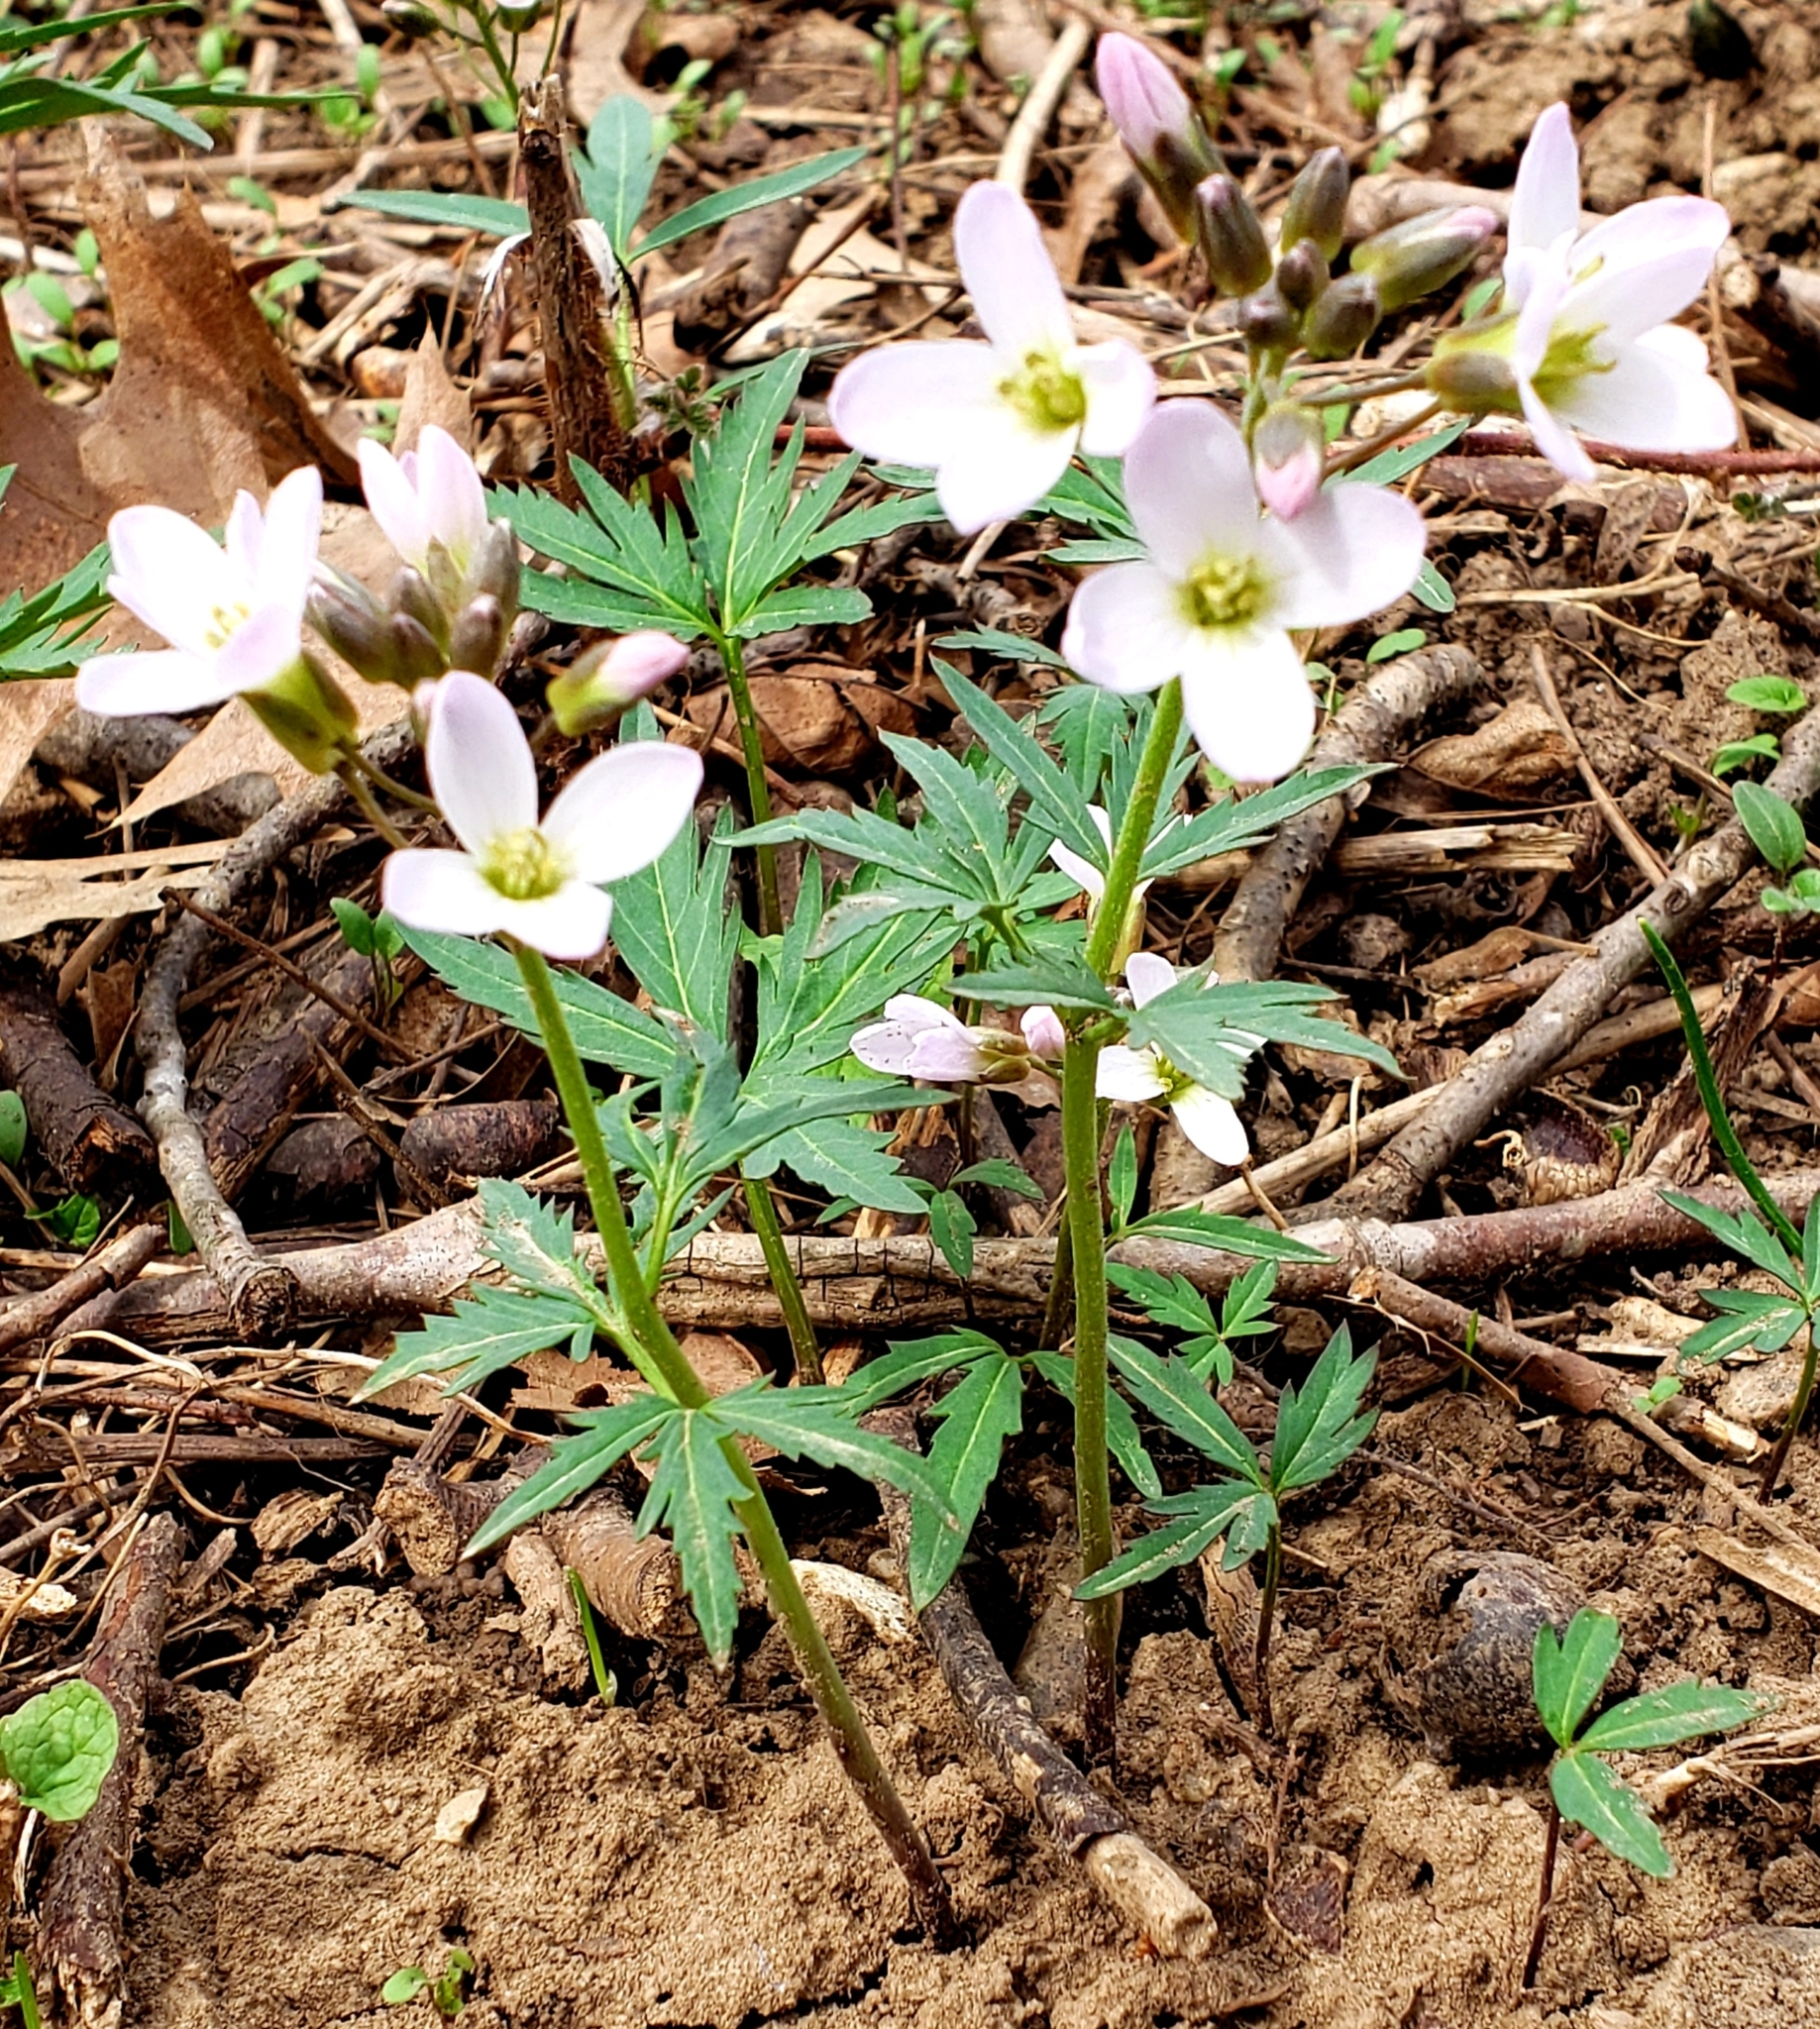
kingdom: Plantae
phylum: Tracheophyta
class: Magnoliopsida
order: Brassicales
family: Brassicaceae
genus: Cardamine
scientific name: Cardamine concatenata
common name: Cut-leaf toothcup
